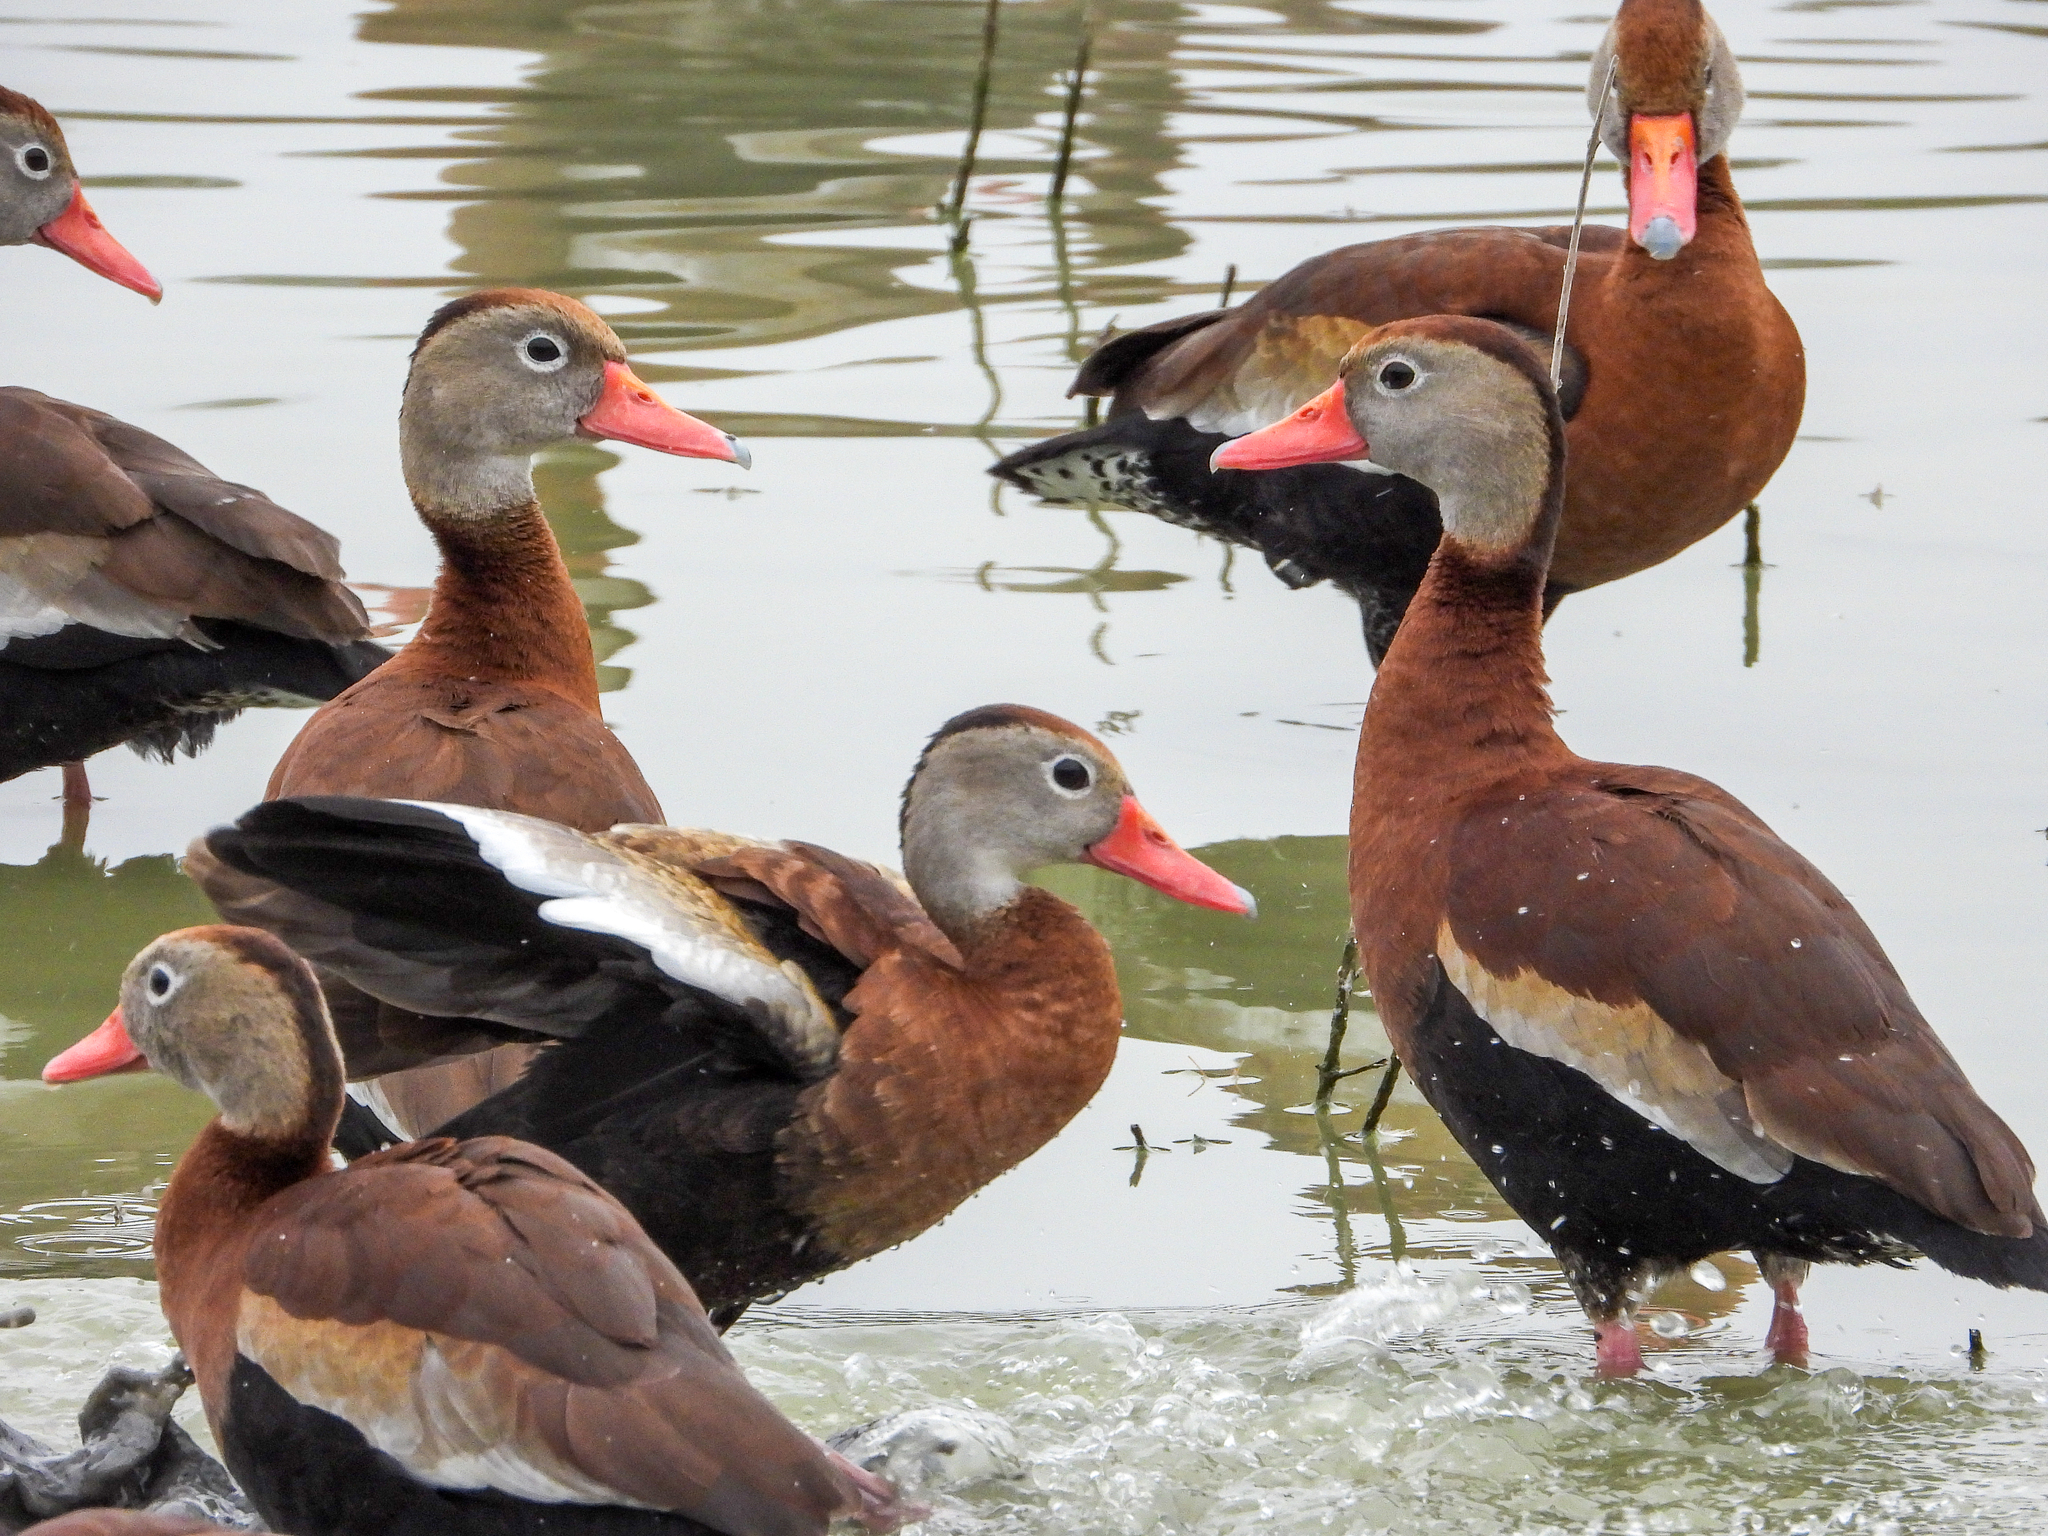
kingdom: Animalia
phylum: Chordata
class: Aves
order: Anseriformes
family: Anatidae
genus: Dendrocygna
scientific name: Dendrocygna autumnalis
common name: Black-bellied whistling duck
